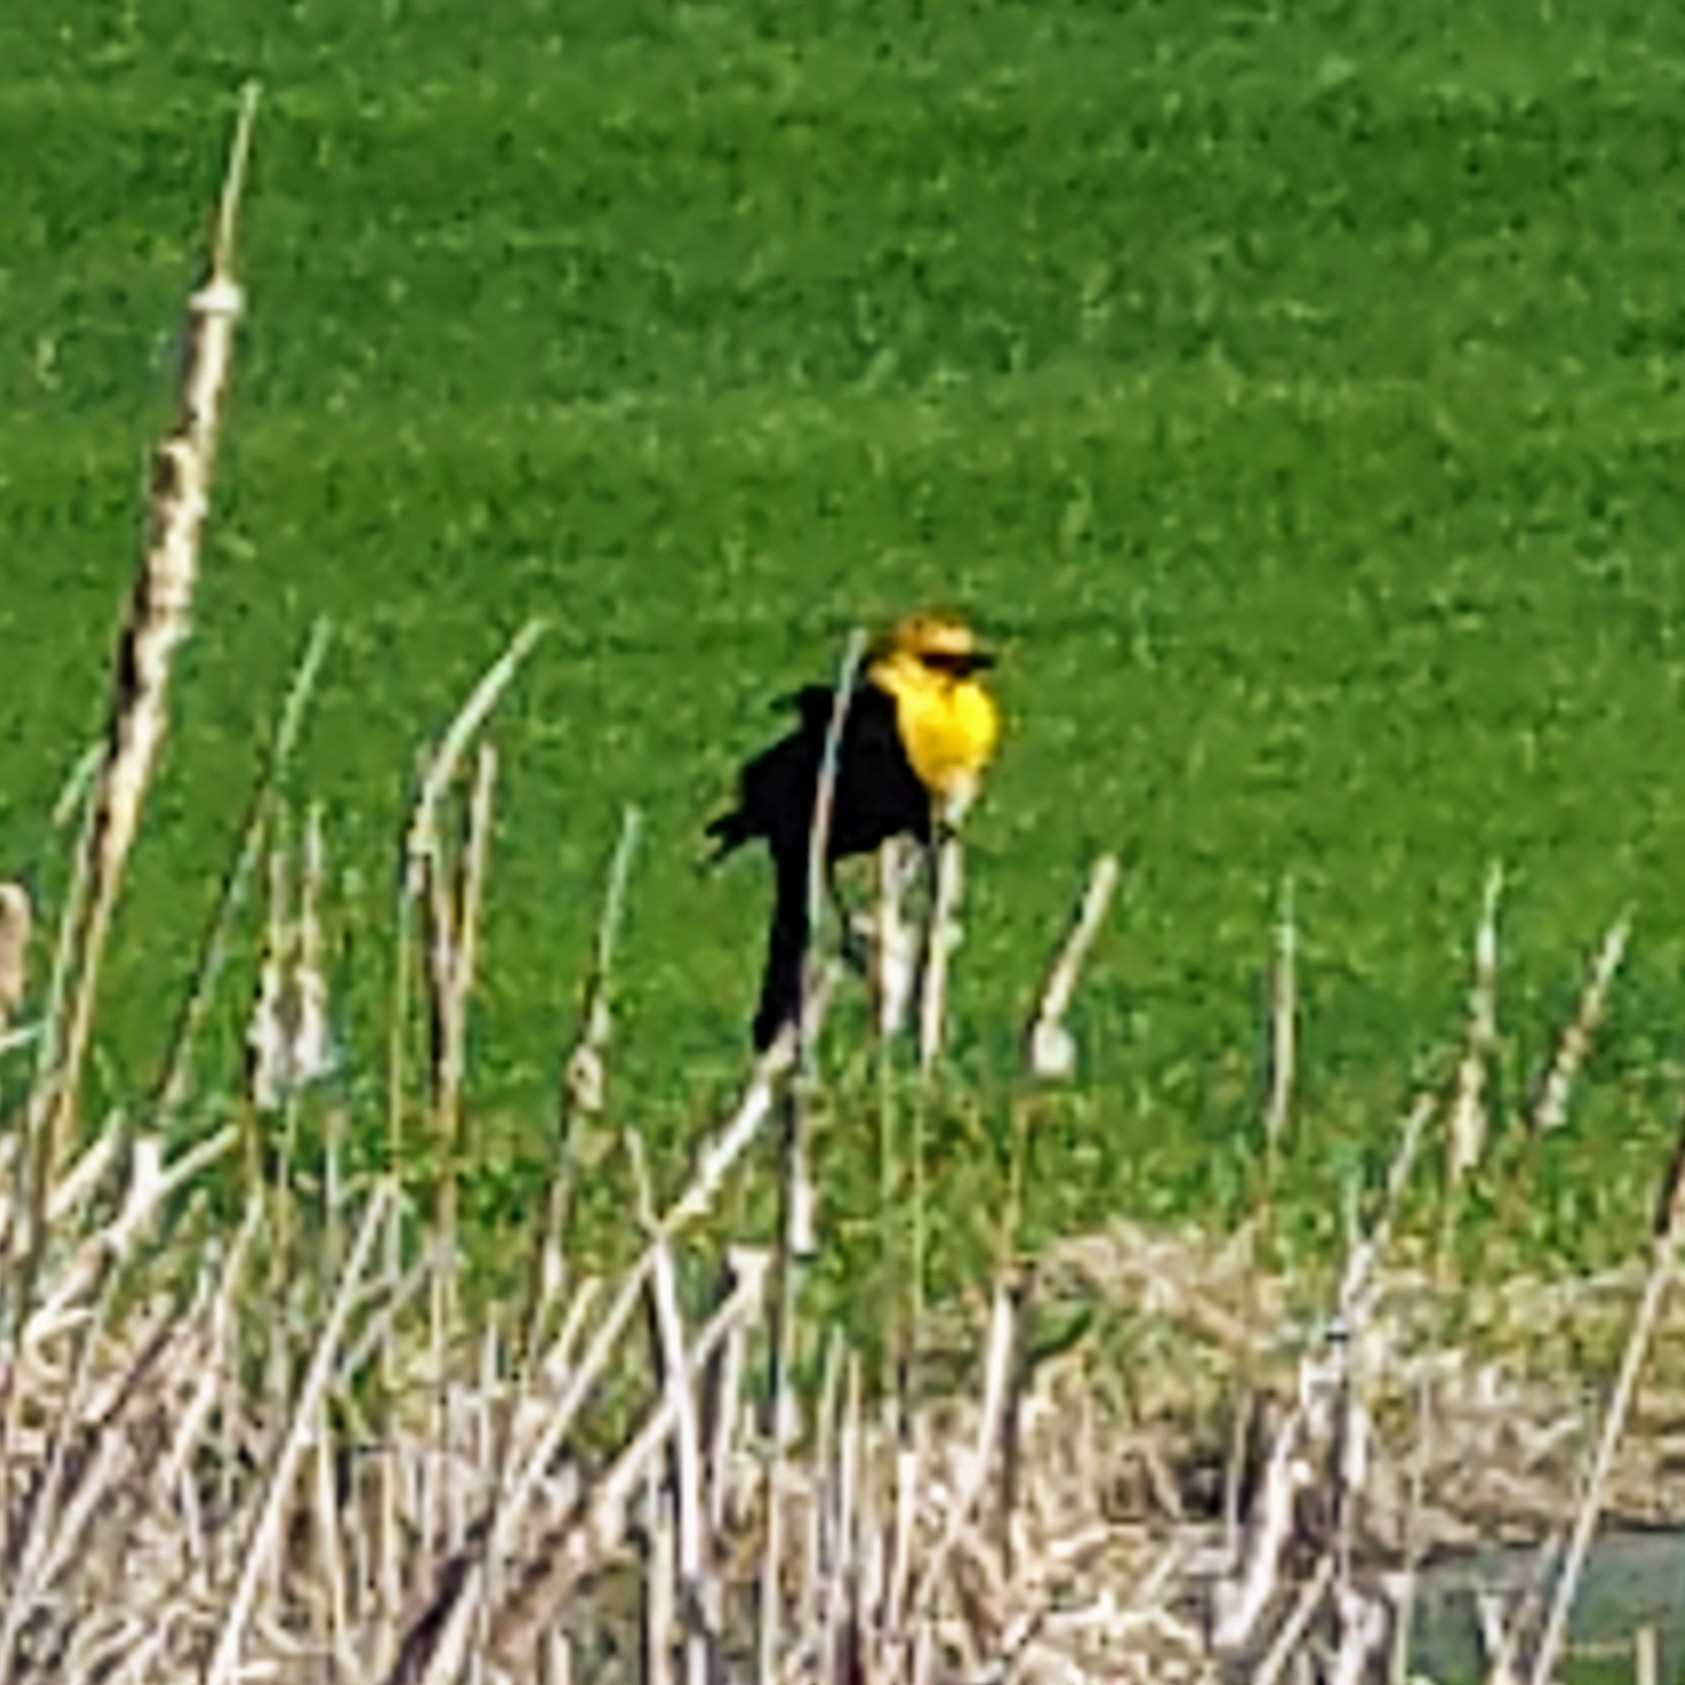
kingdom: Animalia
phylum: Chordata
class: Aves
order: Passeriformes
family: Icteridae
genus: Xanthocephalus
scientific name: Xanthocephalus xanthocephalus
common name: Yellow-headed blackbird
